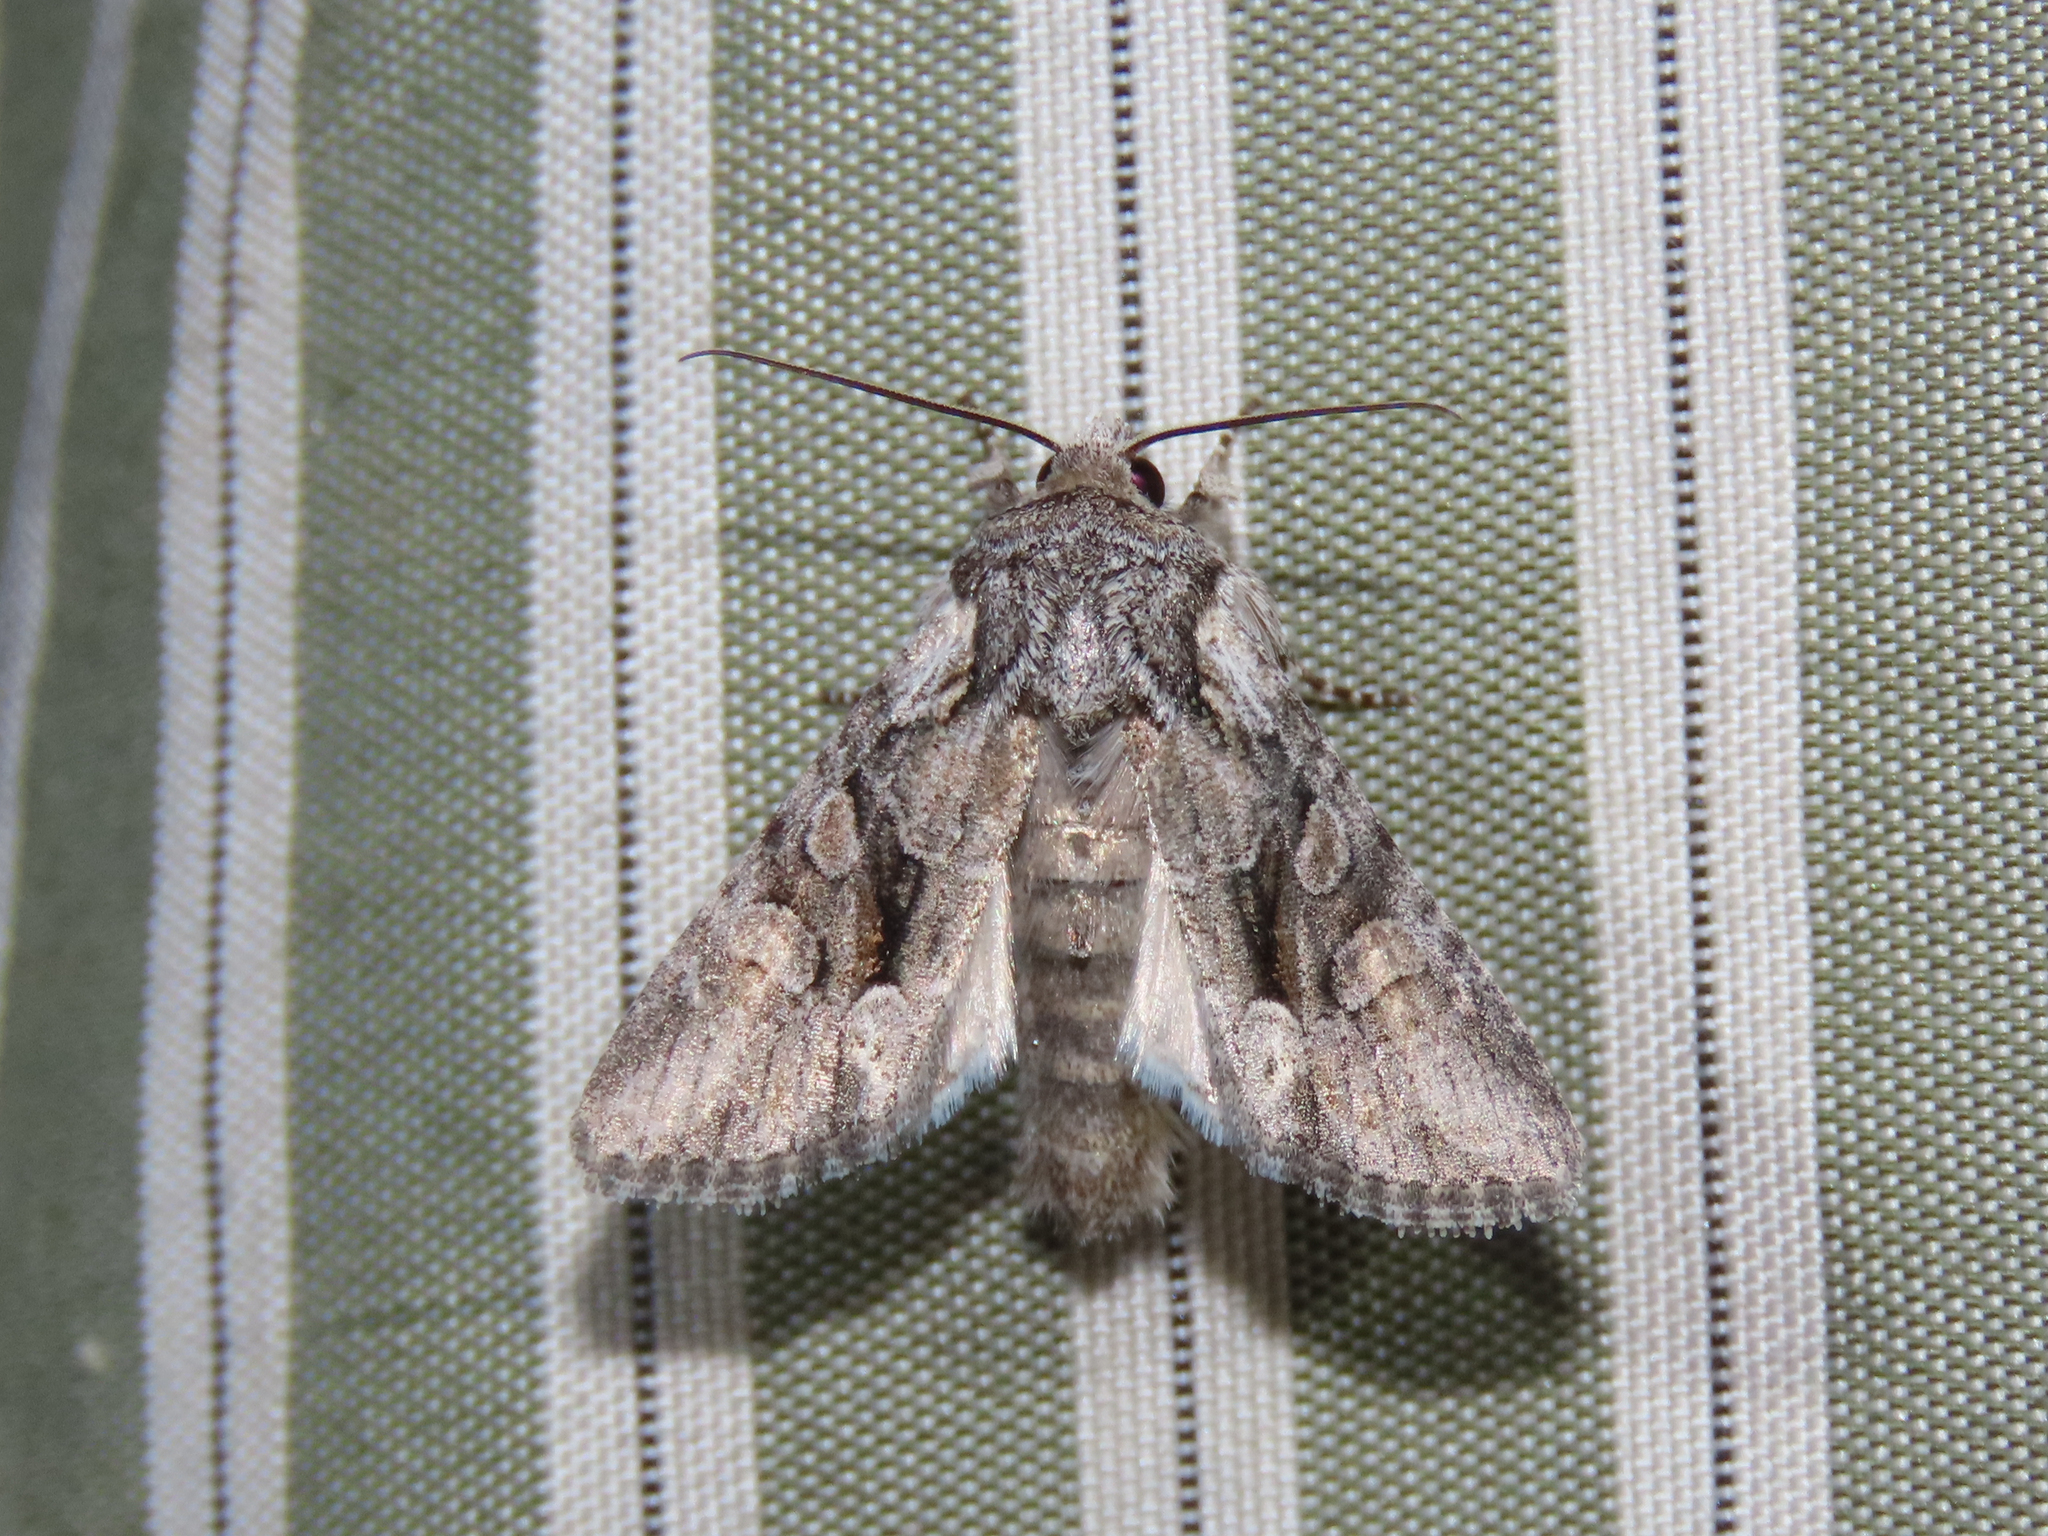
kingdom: Animalia
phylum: Arthropoda
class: Insecta
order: Lepidoptera
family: Noctuidae
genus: Egira
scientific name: Egira variabilis
